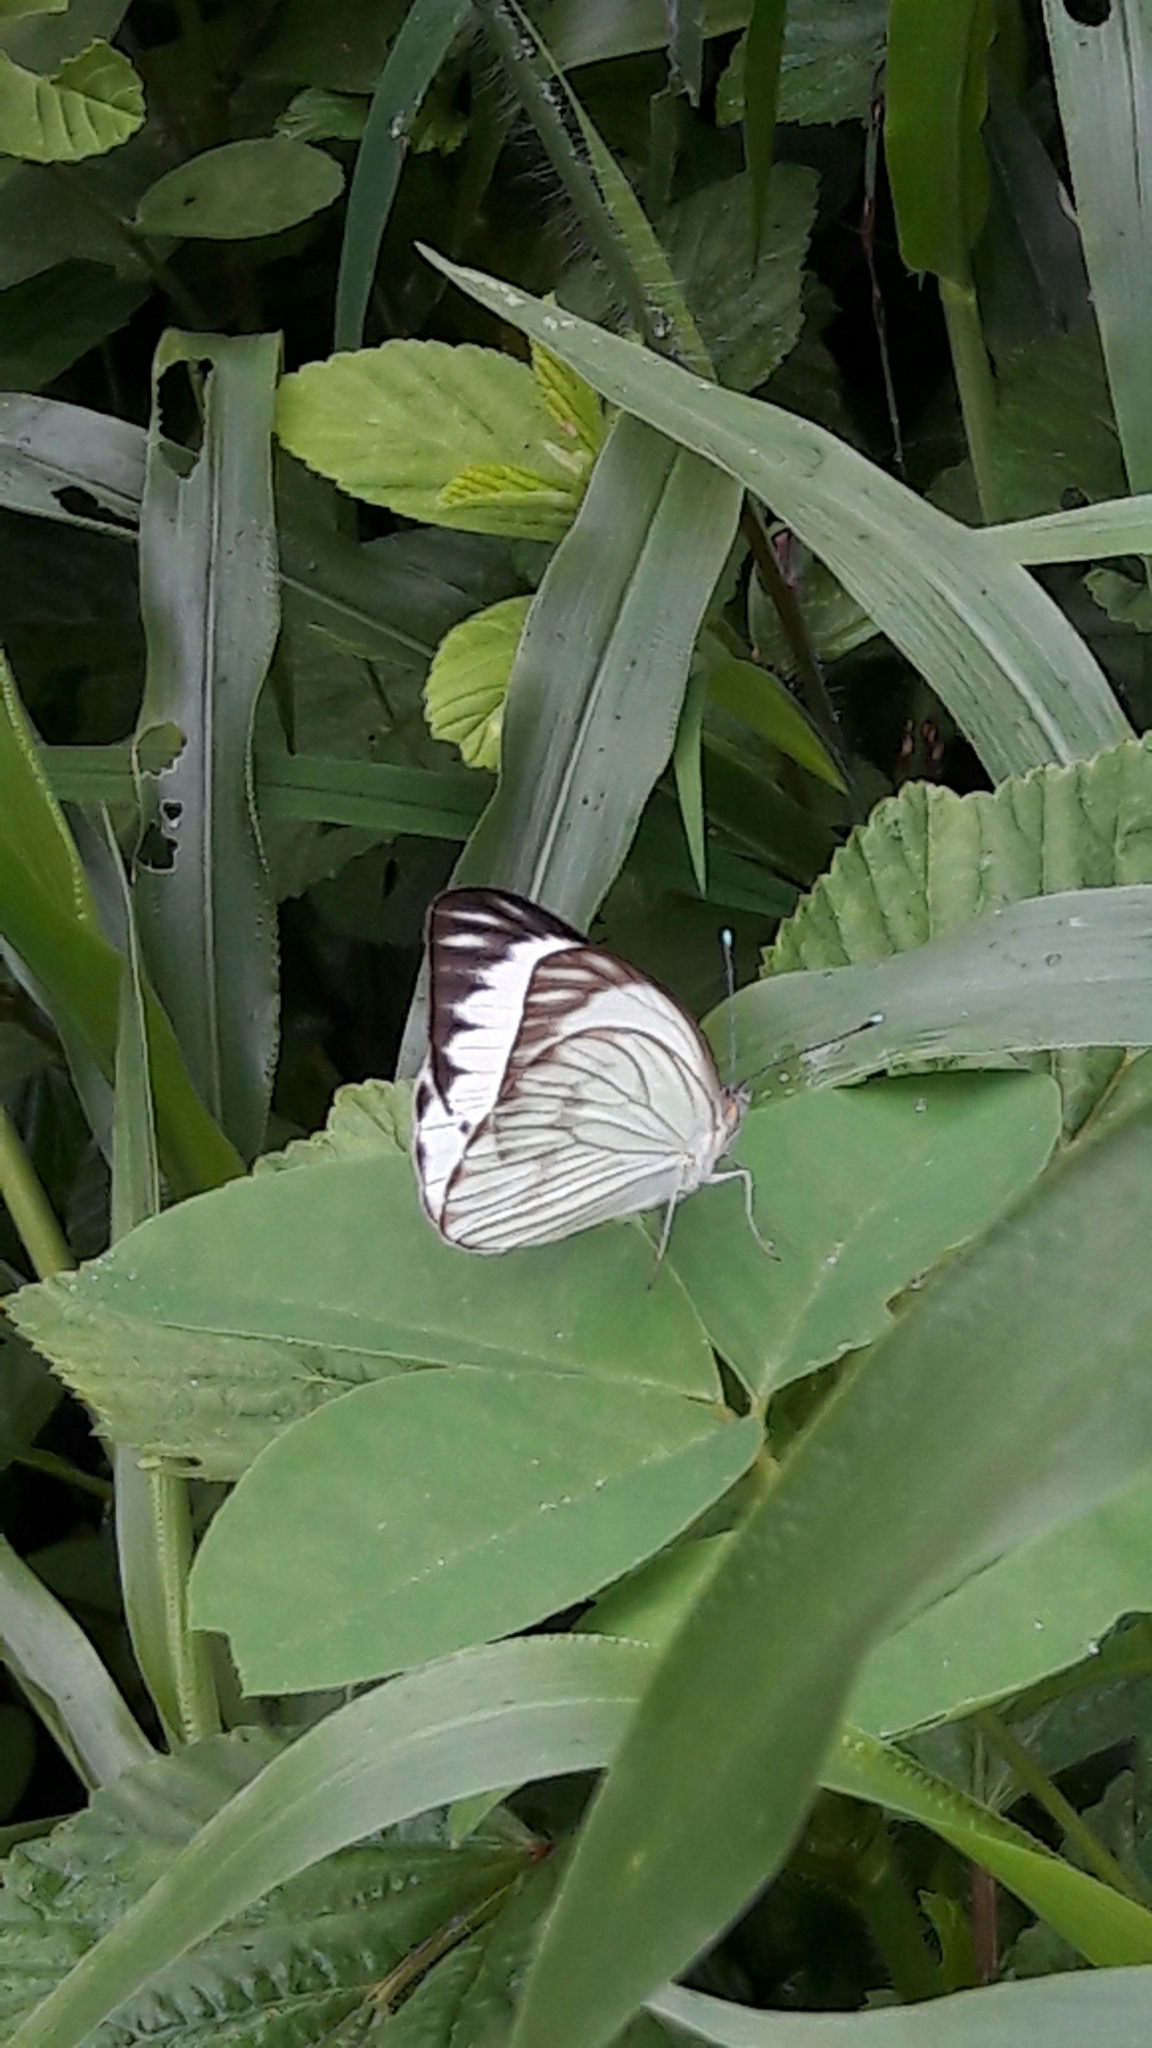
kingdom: Animalia
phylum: Arthropoda
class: Insecta
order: Lepidoptera
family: Pieridae
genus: Ascia
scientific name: Ascia monuste
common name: Great southern white
